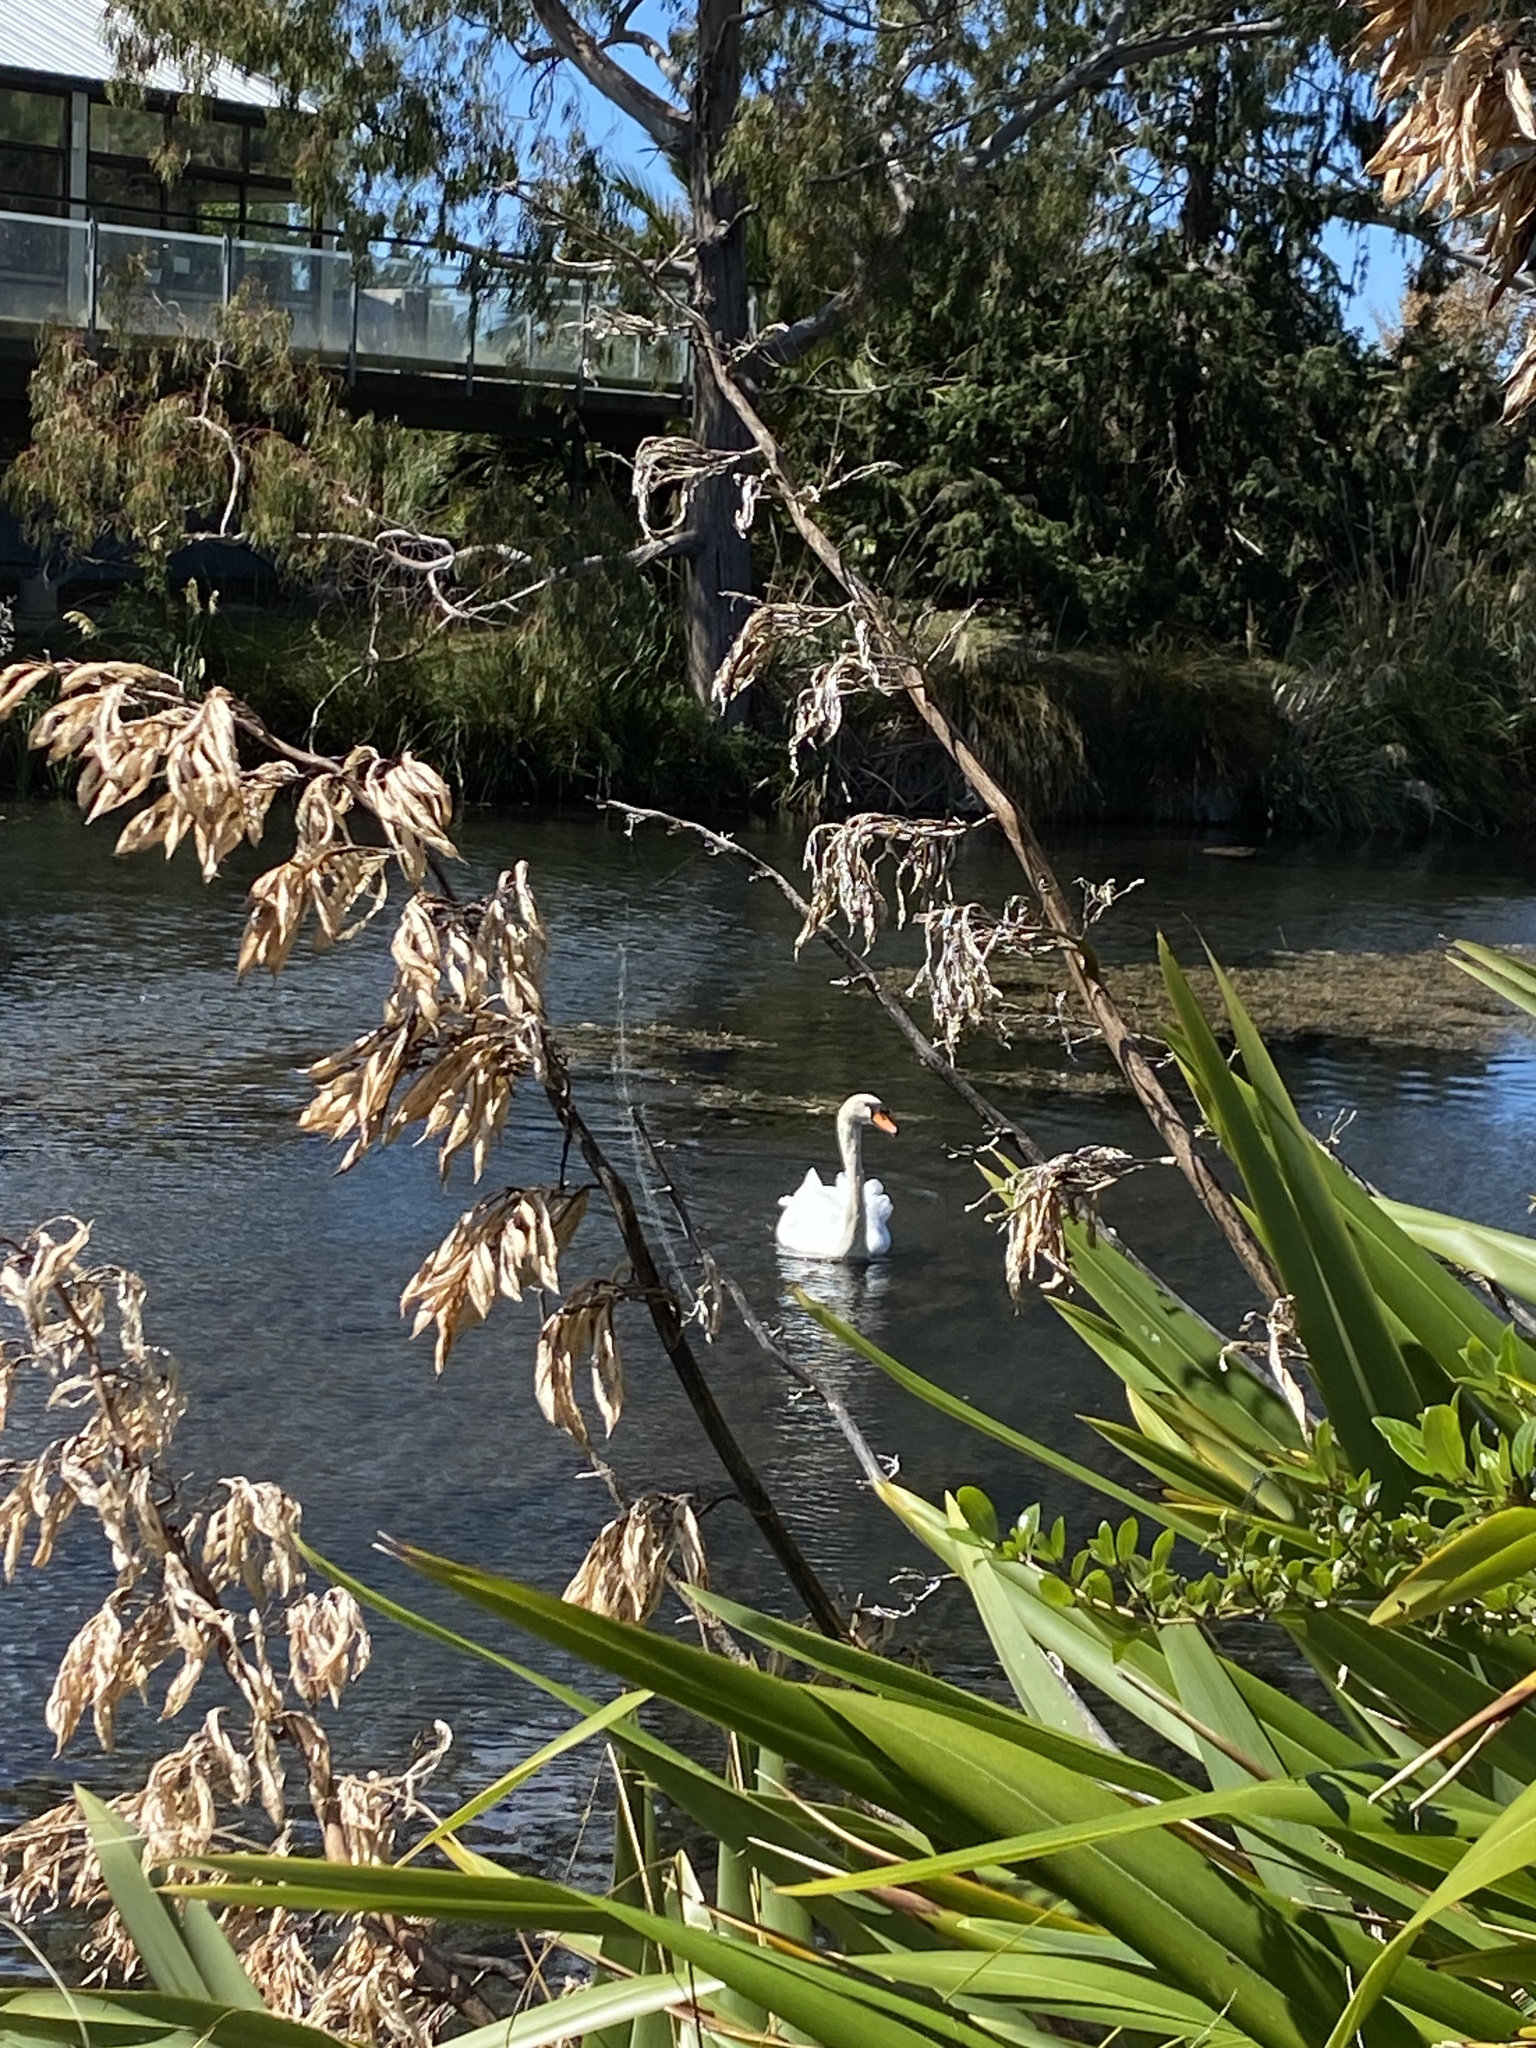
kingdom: Animalia
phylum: Chordata
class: Aves
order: Anseriformes
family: Anatidae
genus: Cygnus
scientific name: Cygnus olor
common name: Mute swan
